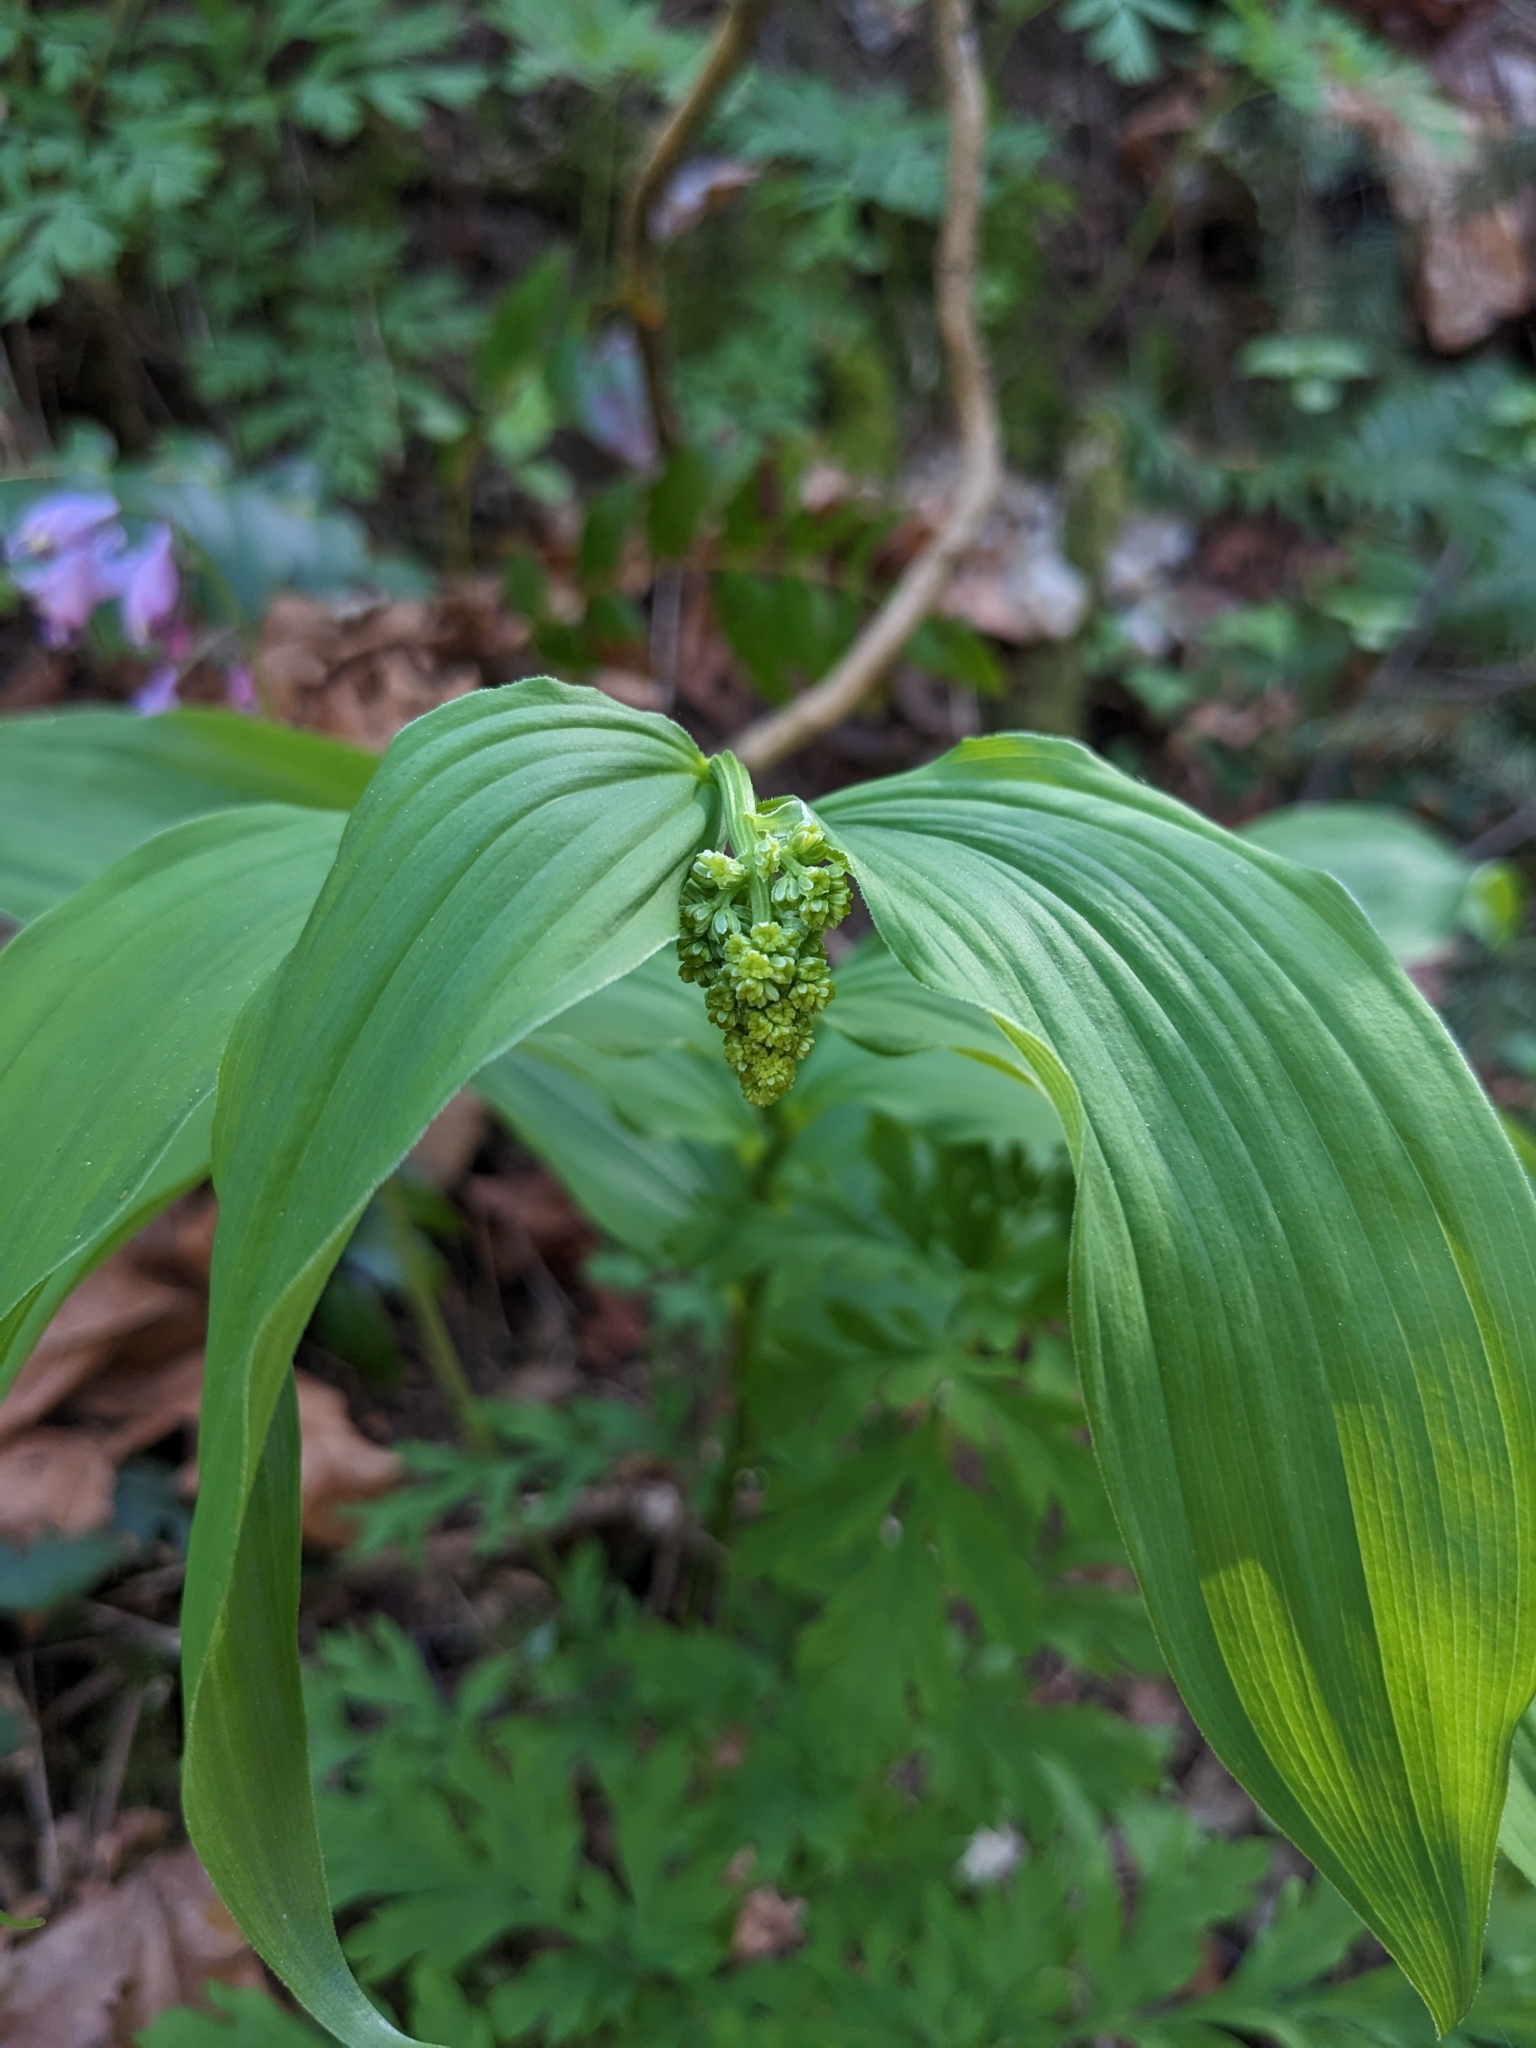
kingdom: Plantae
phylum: Tracheophyta
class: Liliopsida
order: Asparagales
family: Asparagaceae
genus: Maianthemum
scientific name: Maianthemum racemosum
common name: False spikenard
